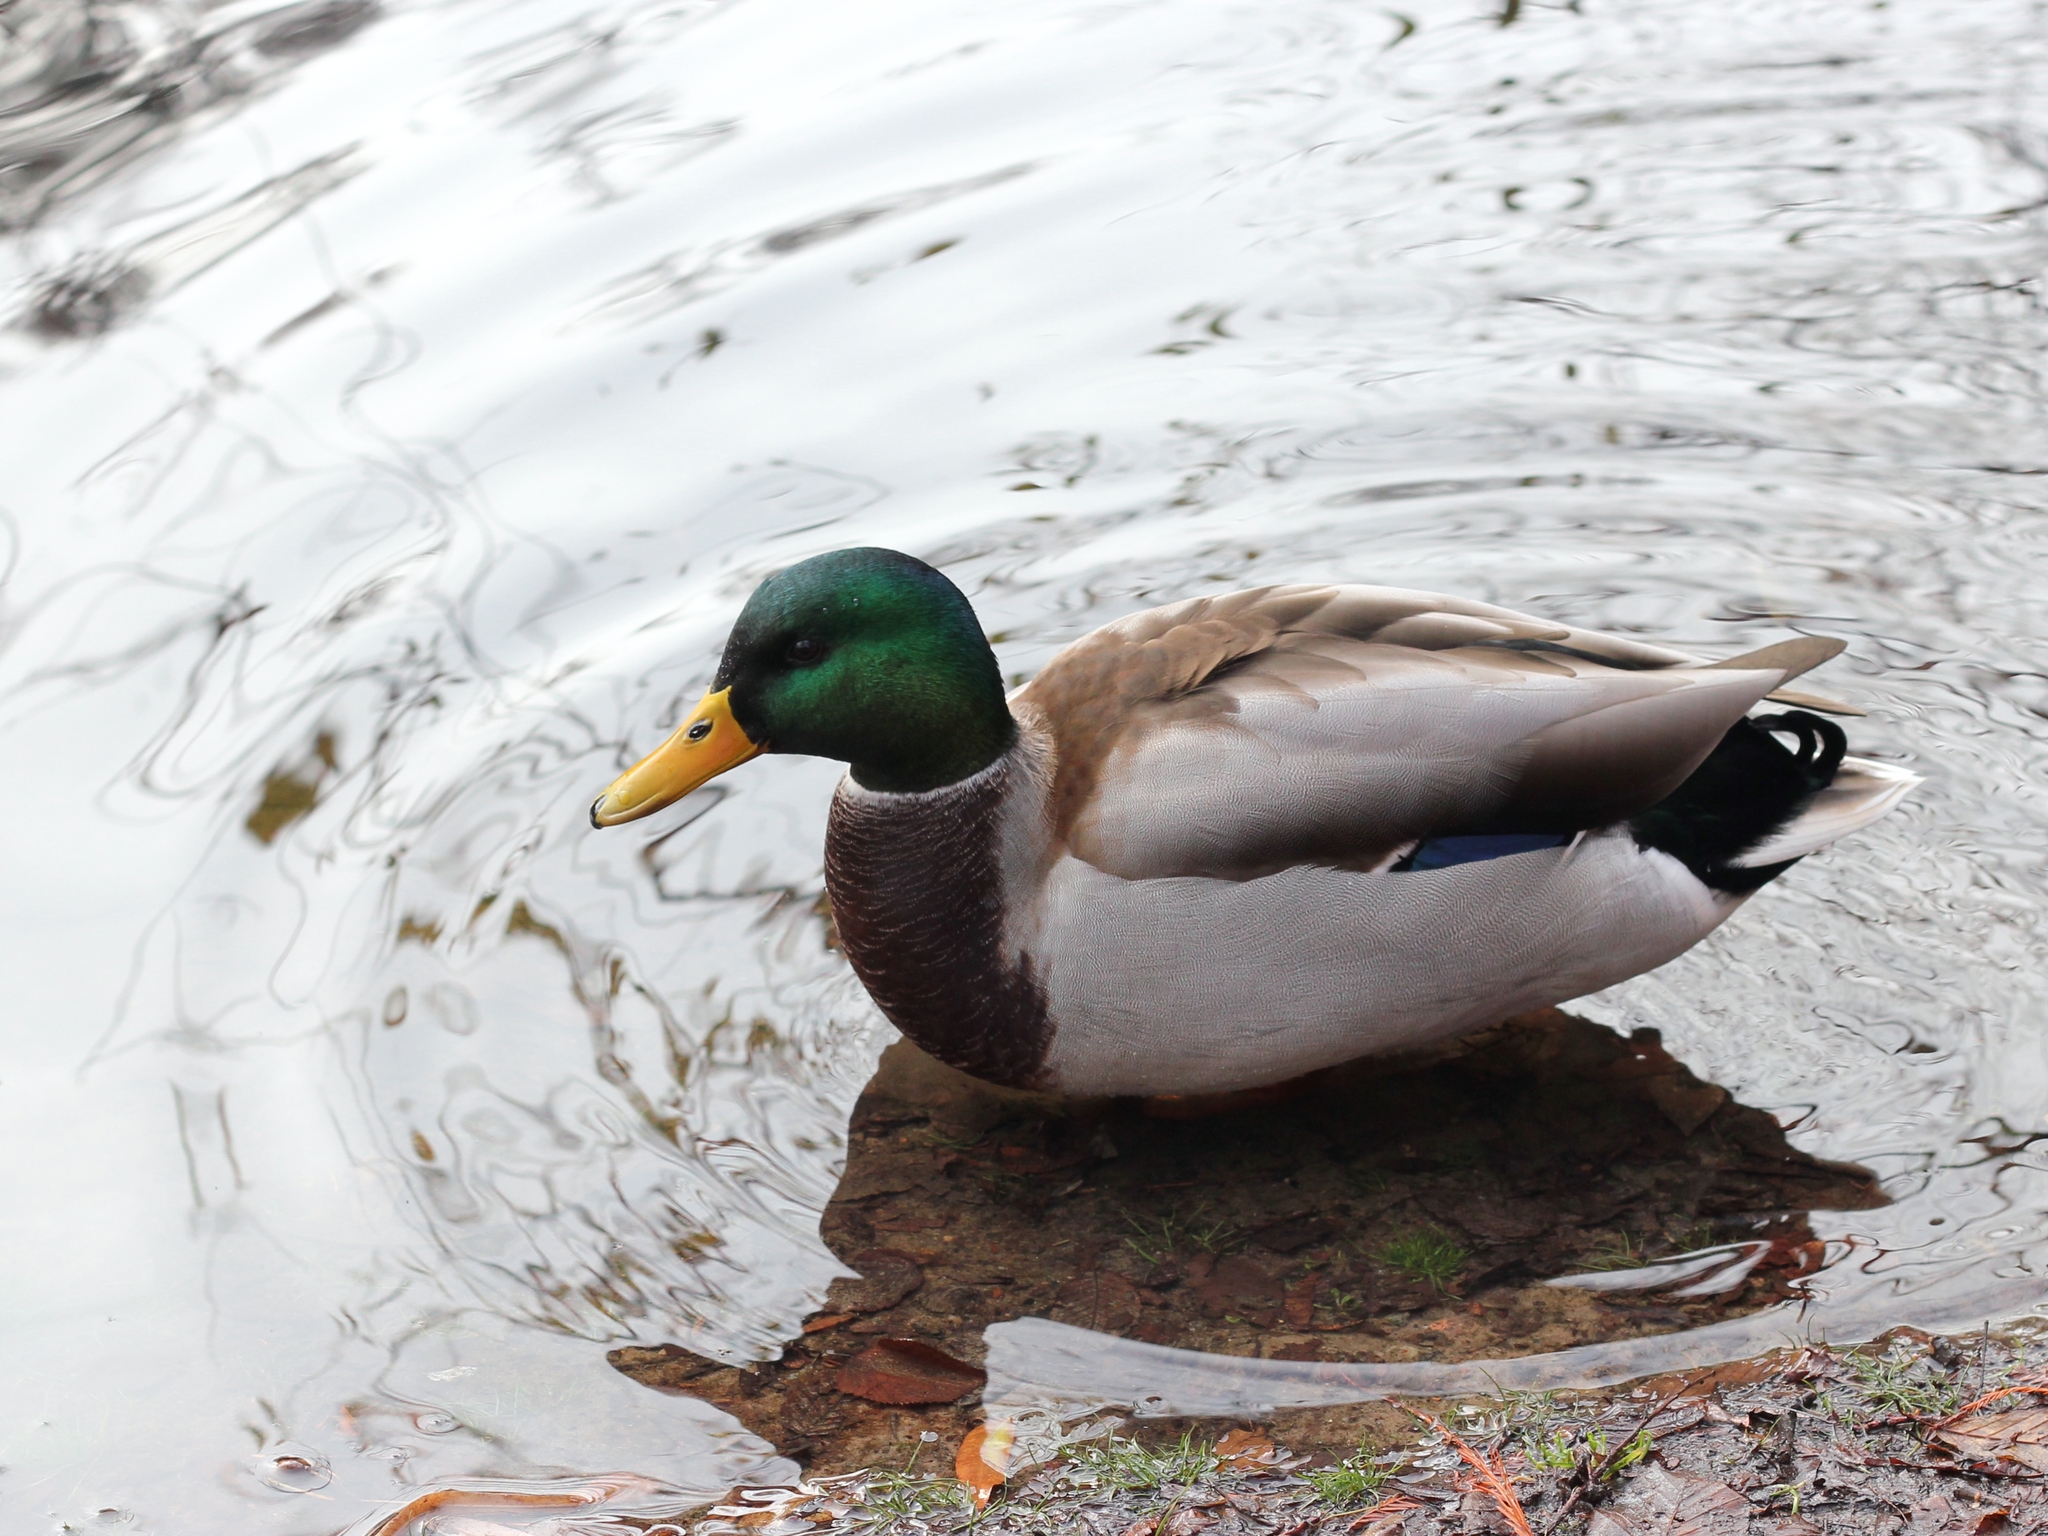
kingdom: Animalia
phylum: Chordata
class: Aves
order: Anseriformes
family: Anatidae
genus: Anas
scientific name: Anas platyrhynchos
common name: Mallard
